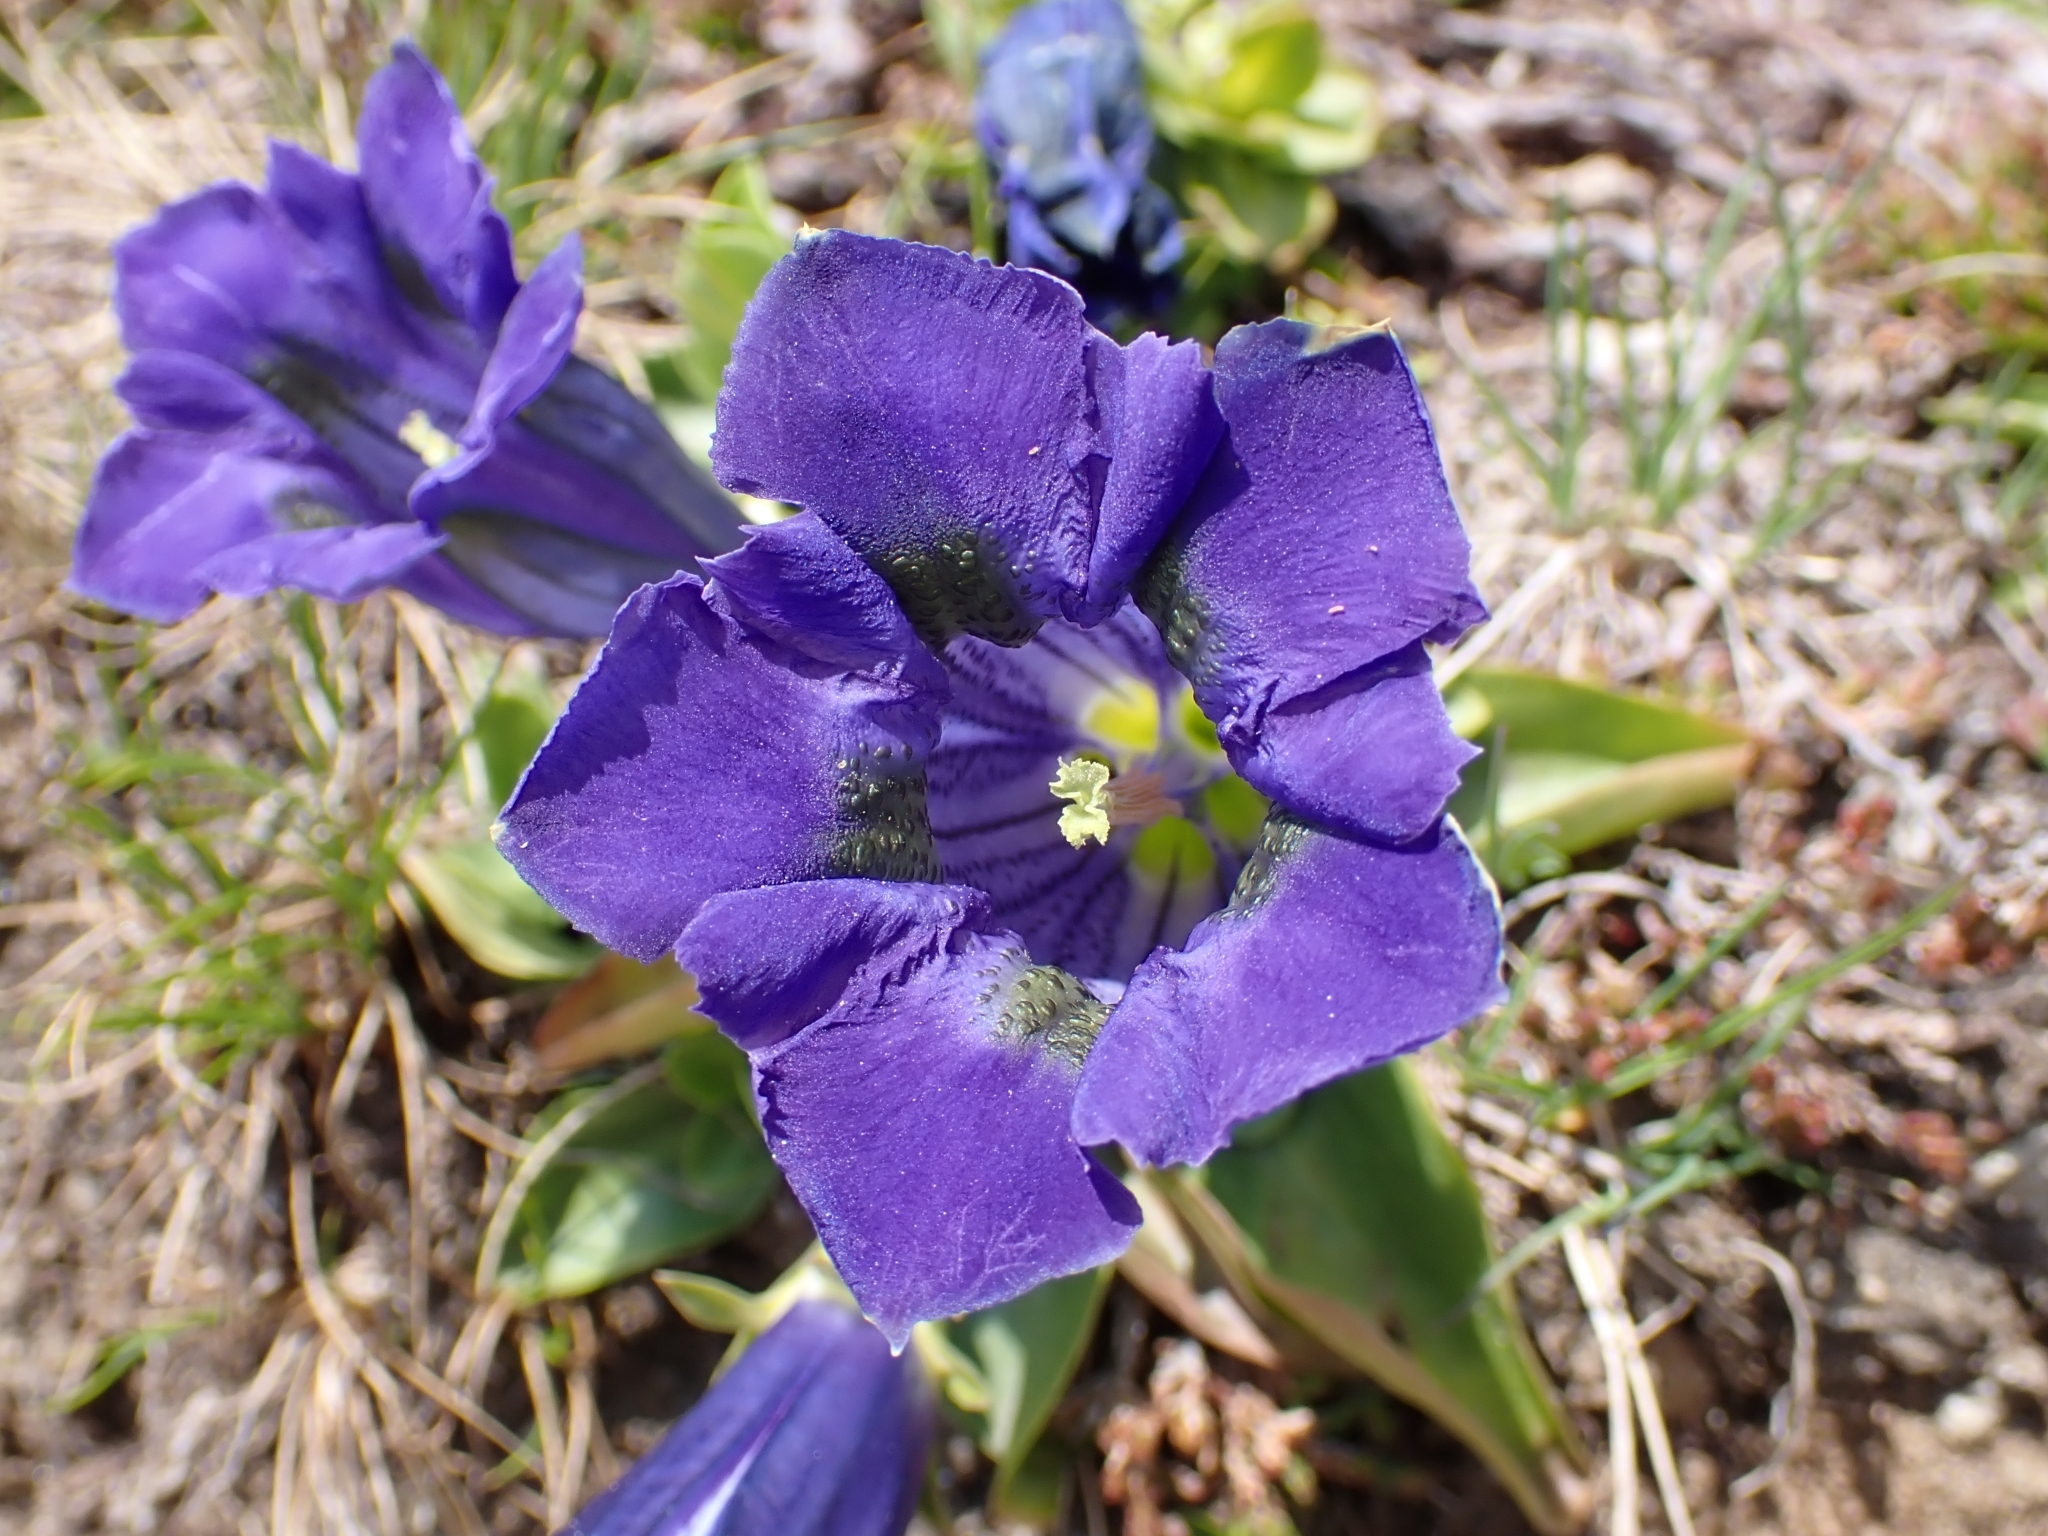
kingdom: Plantae
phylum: Tracheophyta
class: Magnoliopsida
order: Gentianales
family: Gentianaceae
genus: Gentiana
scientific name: Gentiana acaulis
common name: Trumpet gentian
